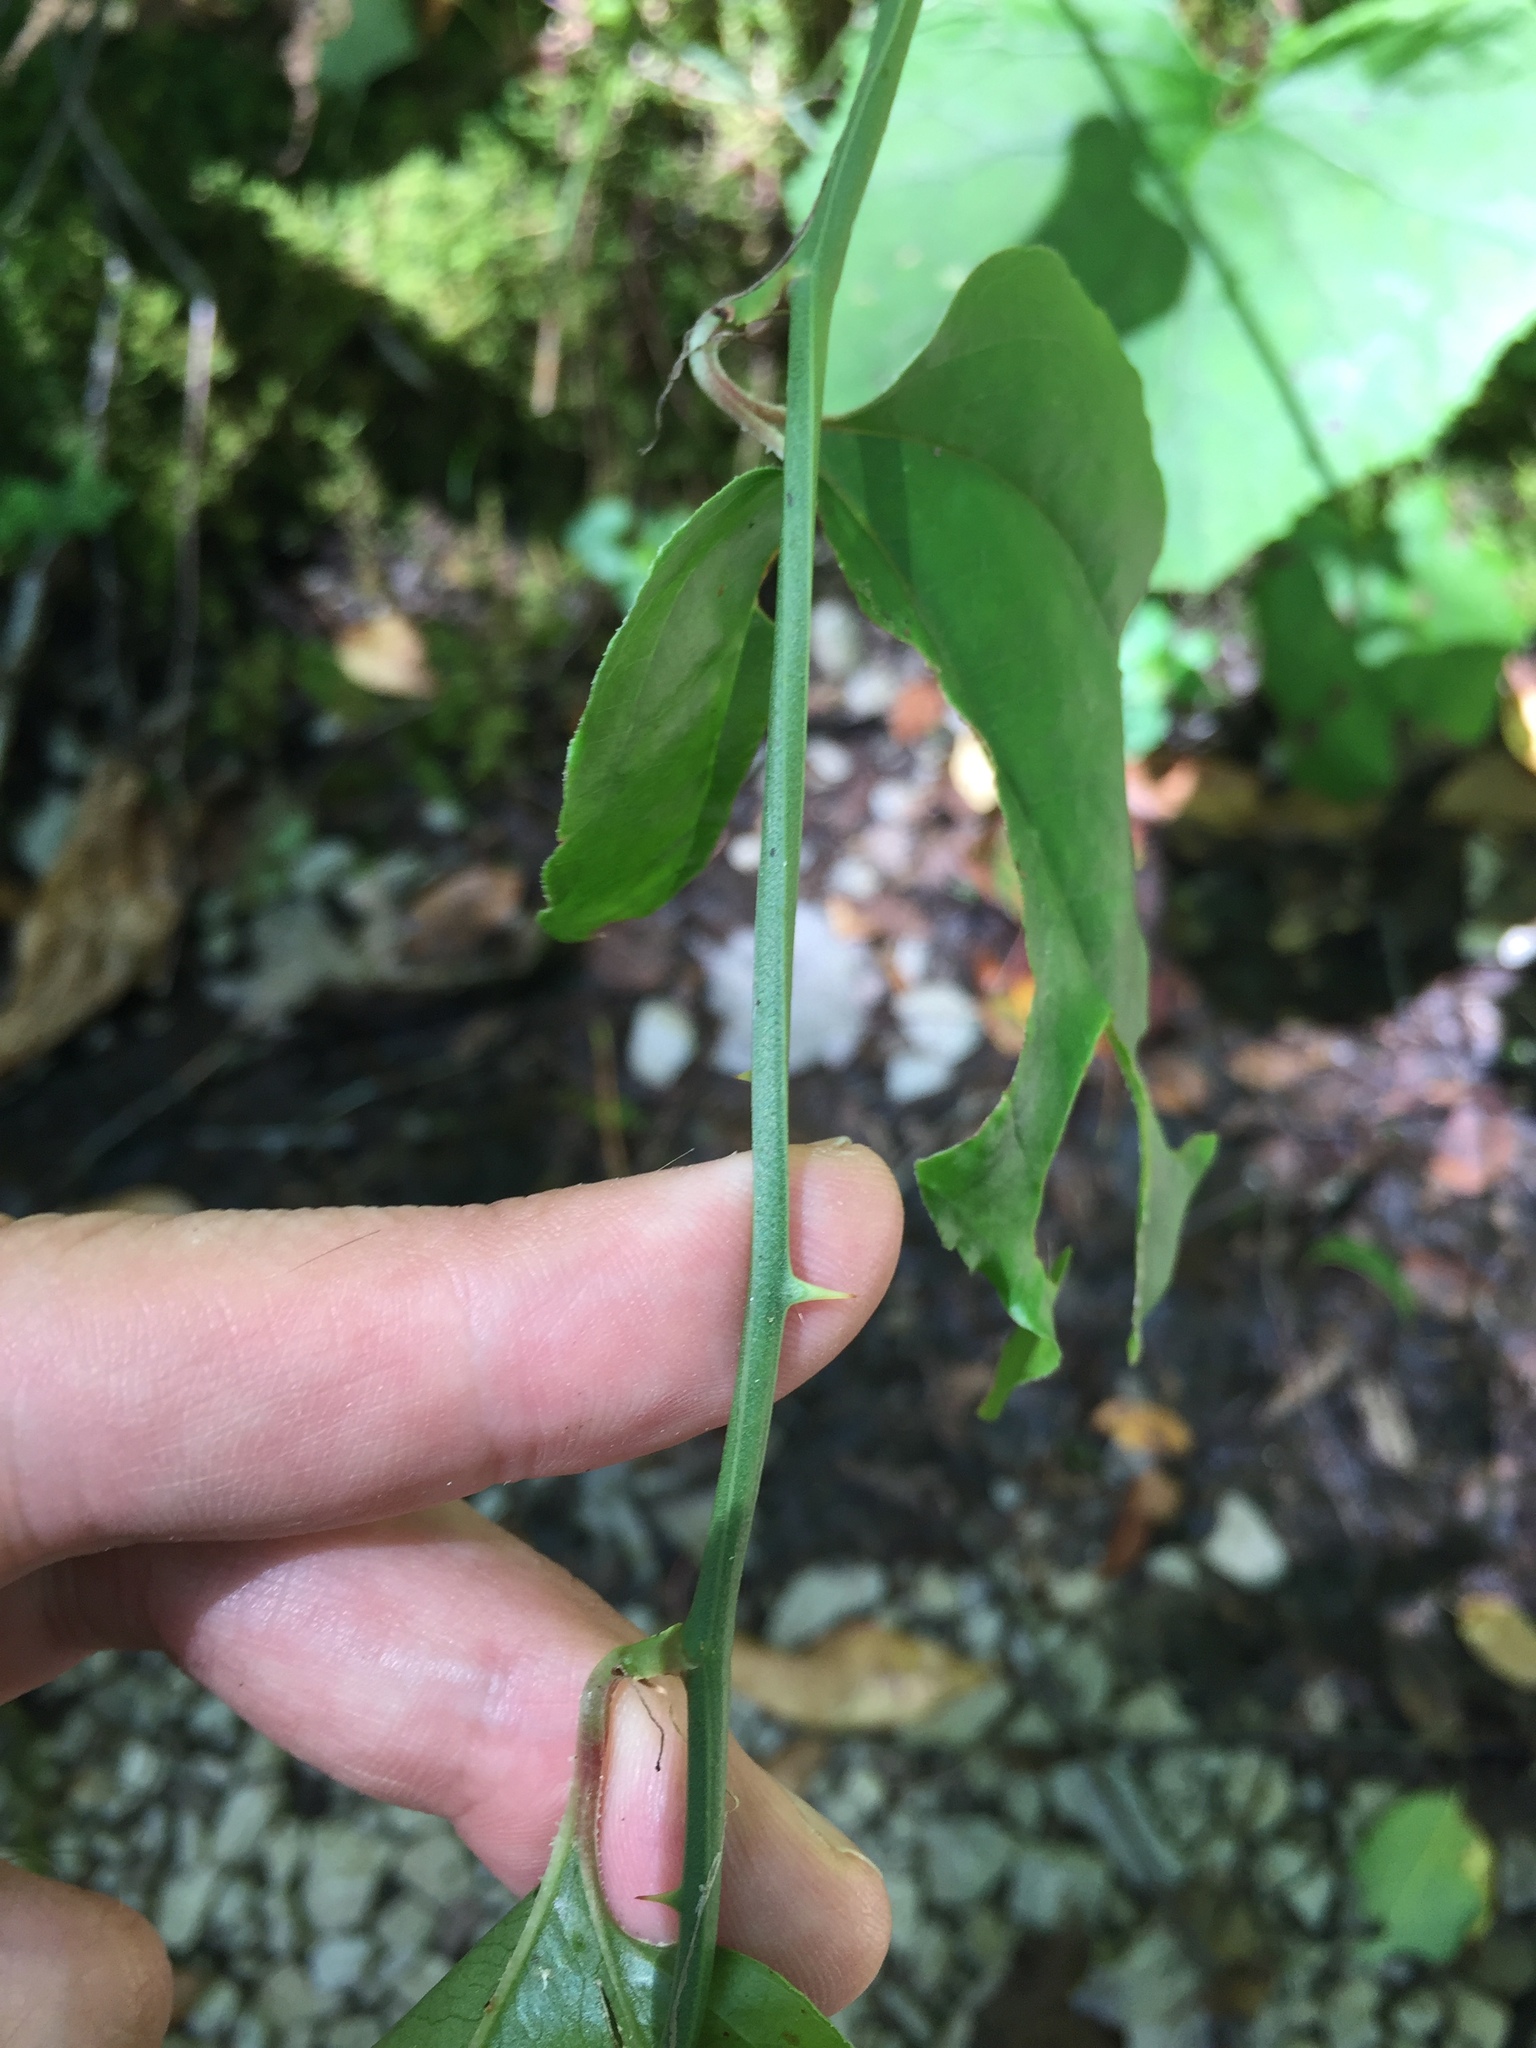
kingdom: Plantae
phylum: Tracheophyta
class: Liliopsida
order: Liliales
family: Smilacaceae
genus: Smilax
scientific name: Smilax rotundifolia
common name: Bullbriar
